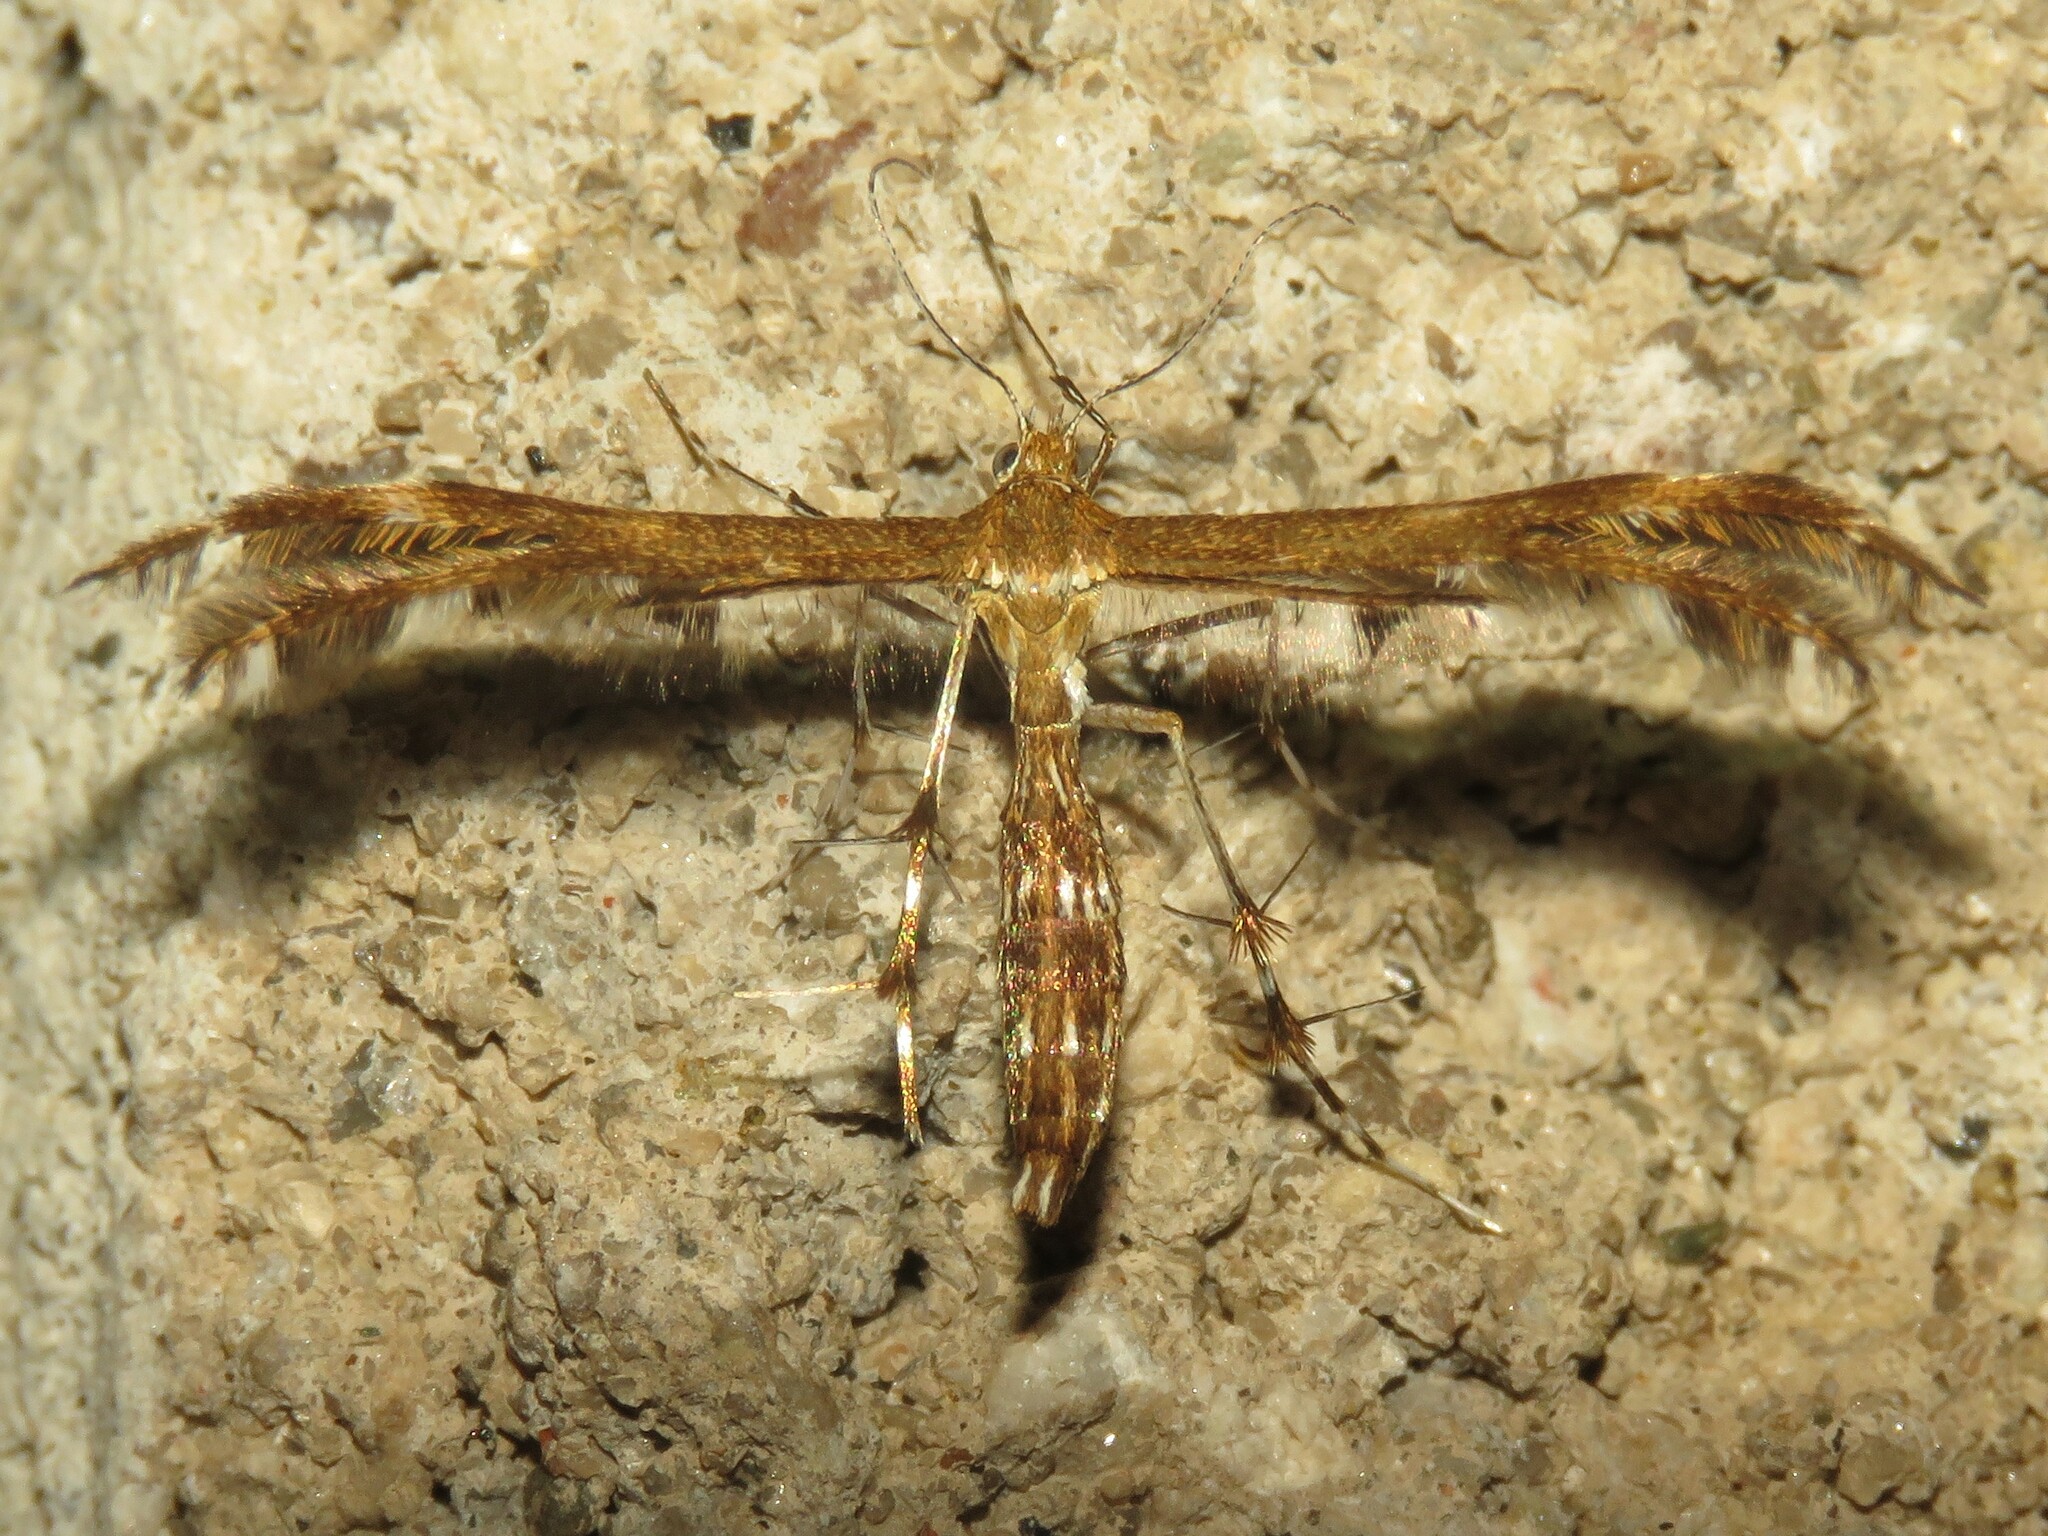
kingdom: Animalia
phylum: Arthropoda
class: Insecta
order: Lepidoptera
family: Pterophoridae
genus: Dejongia
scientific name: Dejongia lobidactylus
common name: Lobed plume moth
